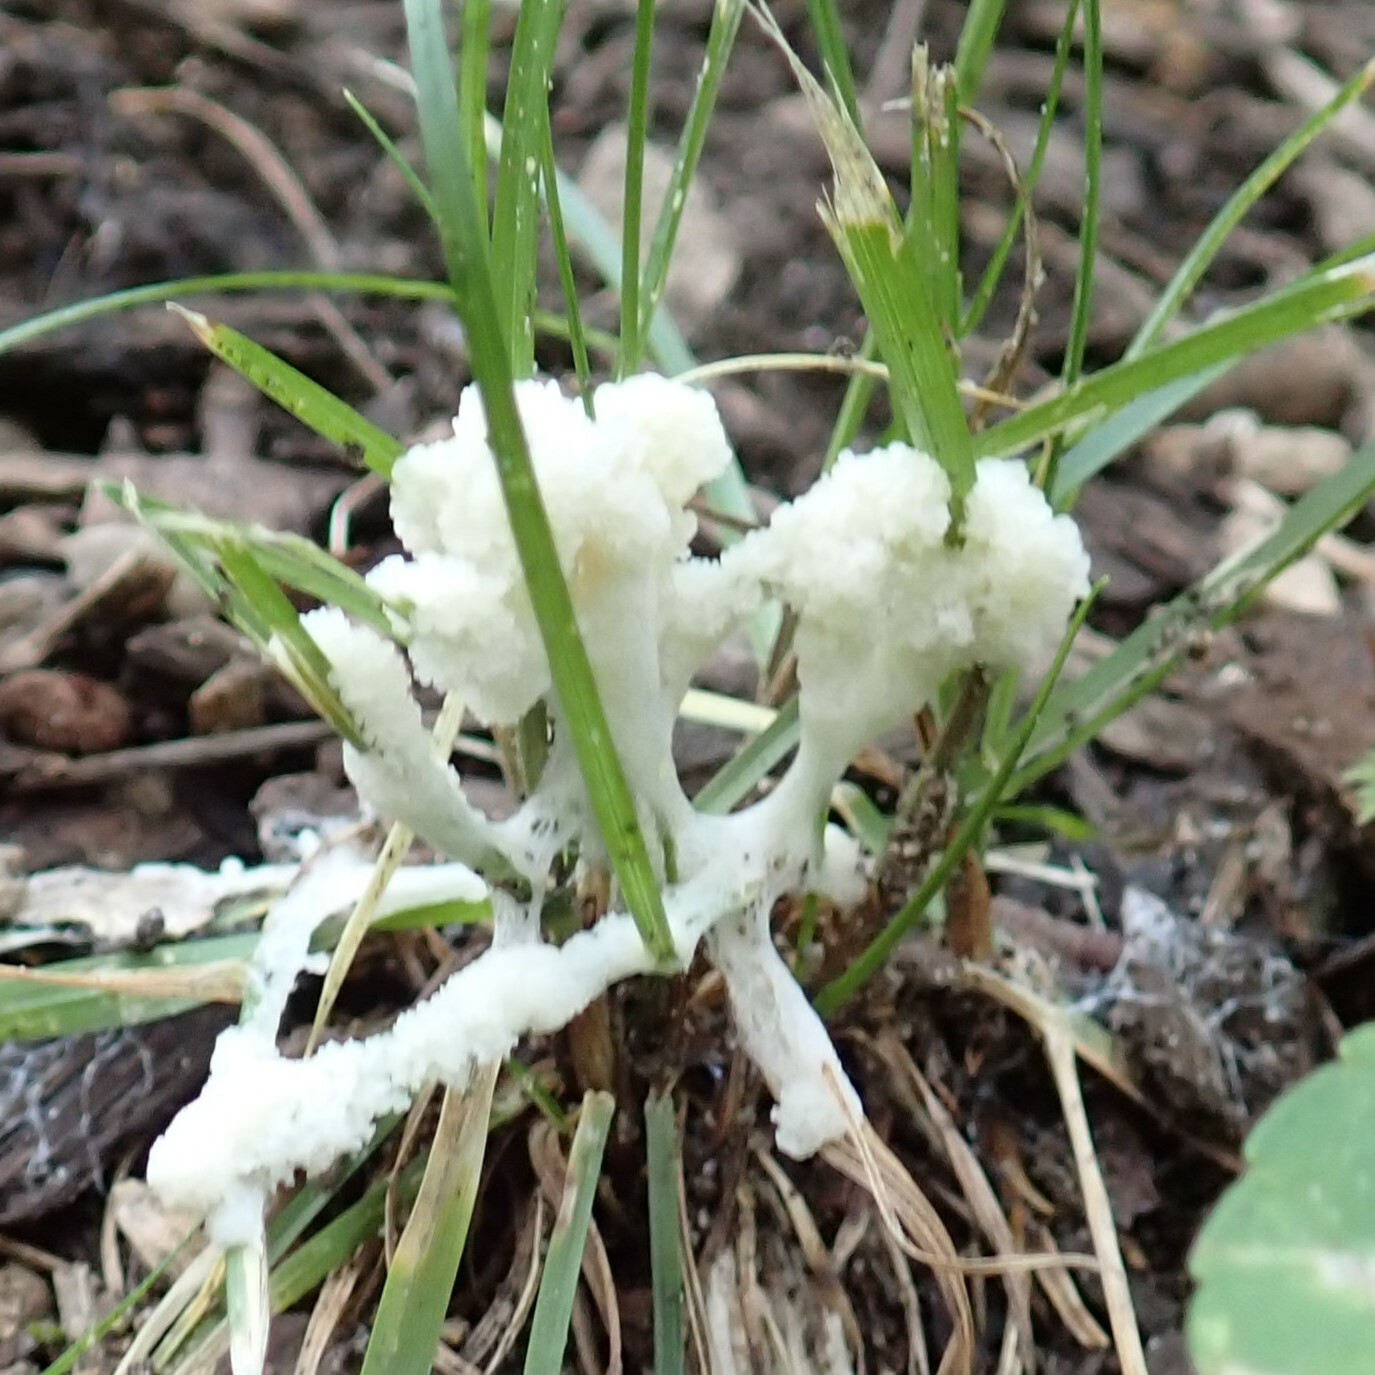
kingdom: Fungi
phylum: Basidiomycota
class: Agaricomycetes
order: Sebacinales
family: Sebacinaceae
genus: Sebacina
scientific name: Sebacina incrustans
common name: Enveloping crust
